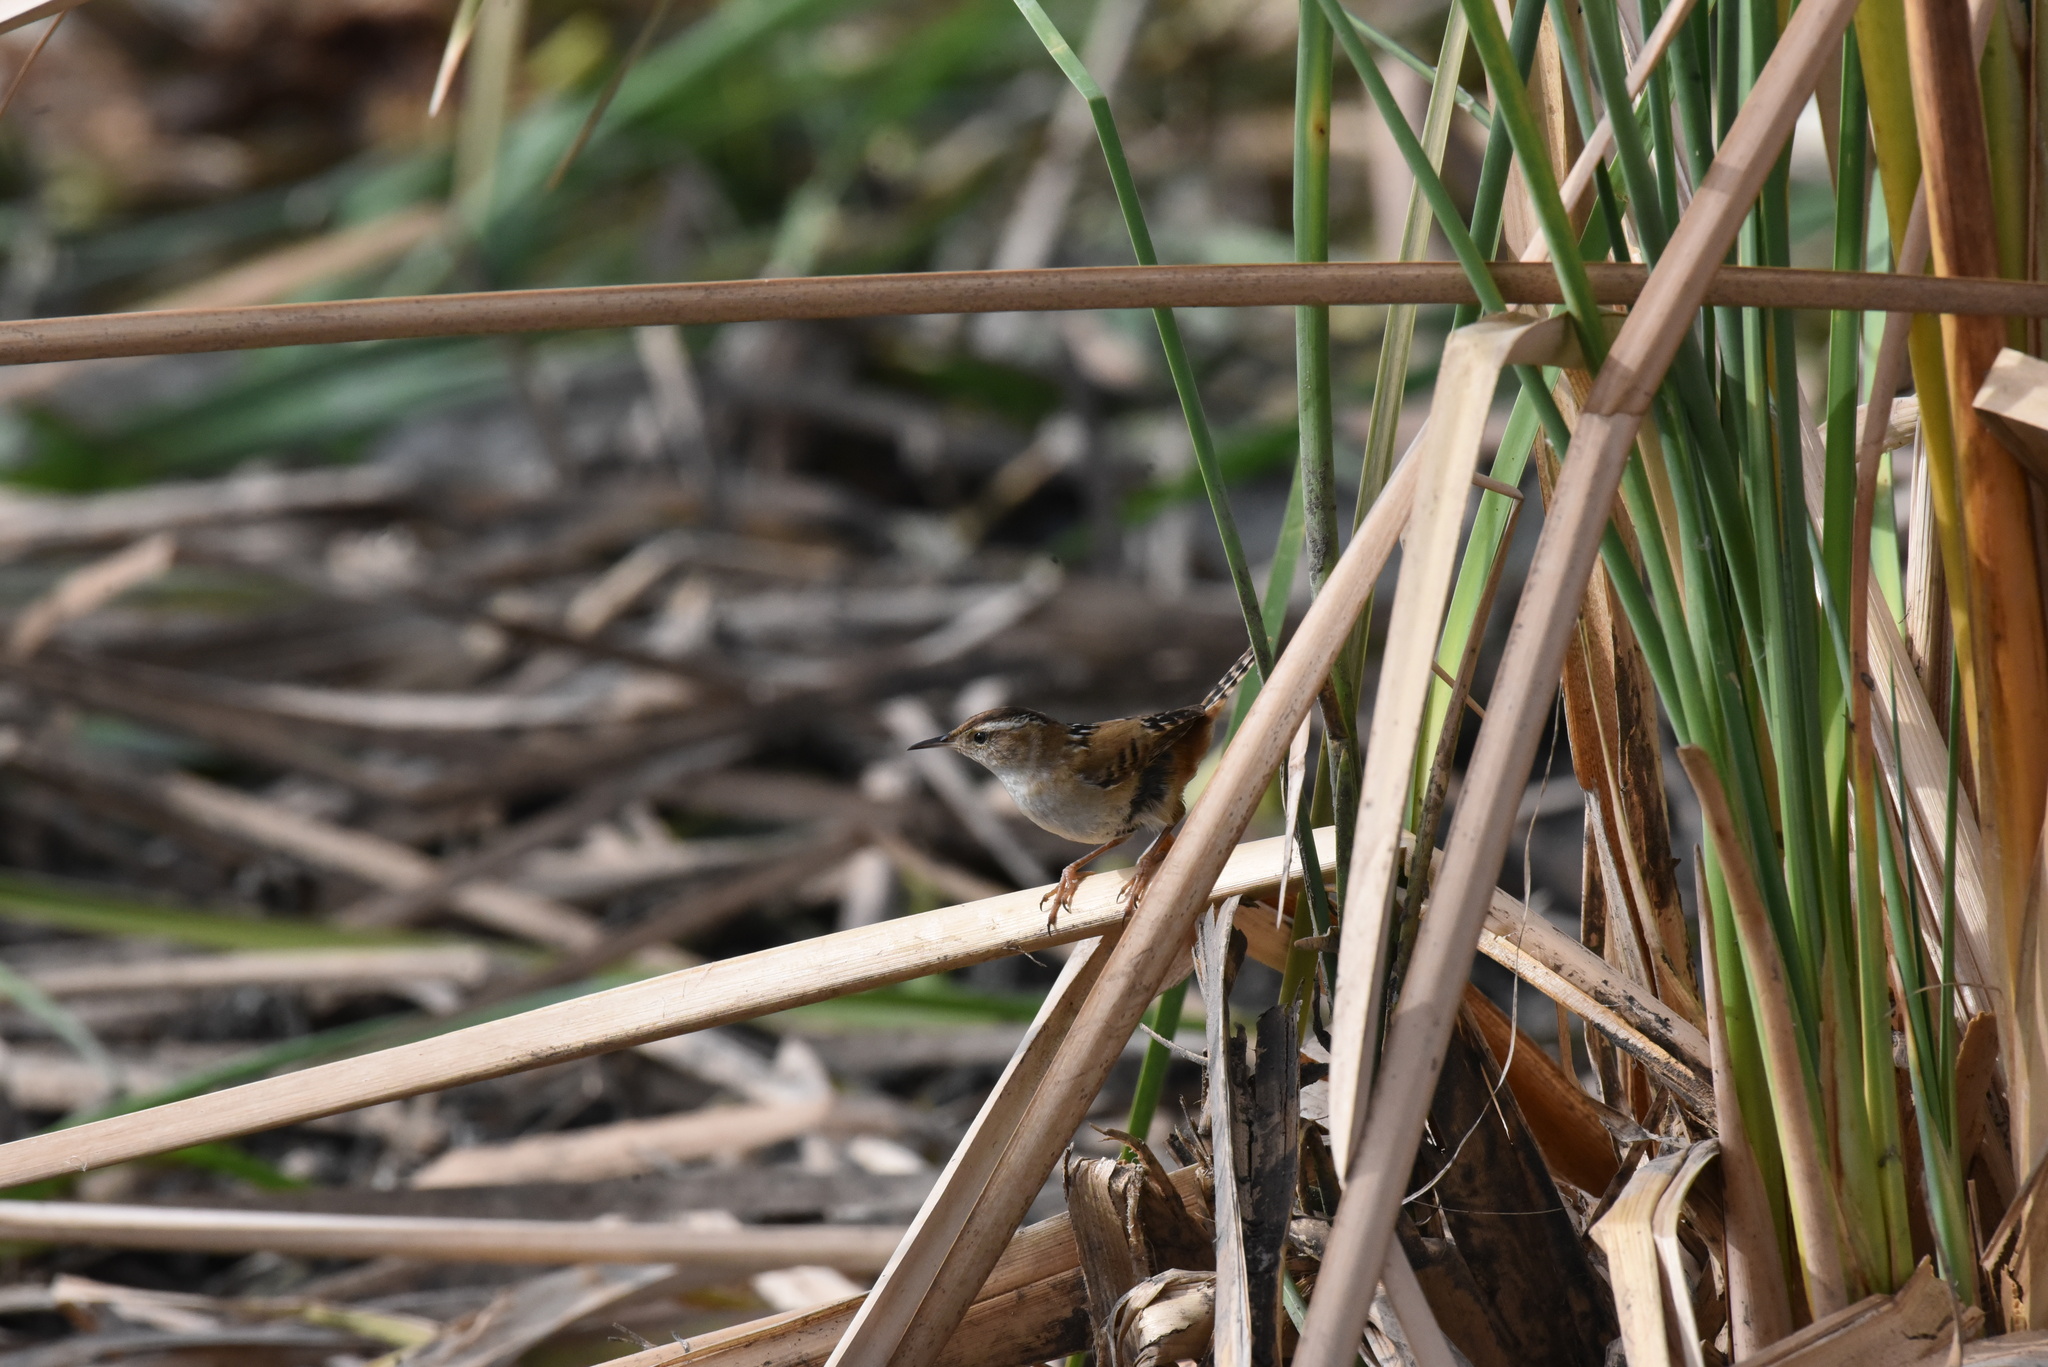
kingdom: Animalia
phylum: Chordata
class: Aves
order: Passeriformes
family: Troglodytidae
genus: Cistothorus
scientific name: Cistothorus palustris
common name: Marsh wren
